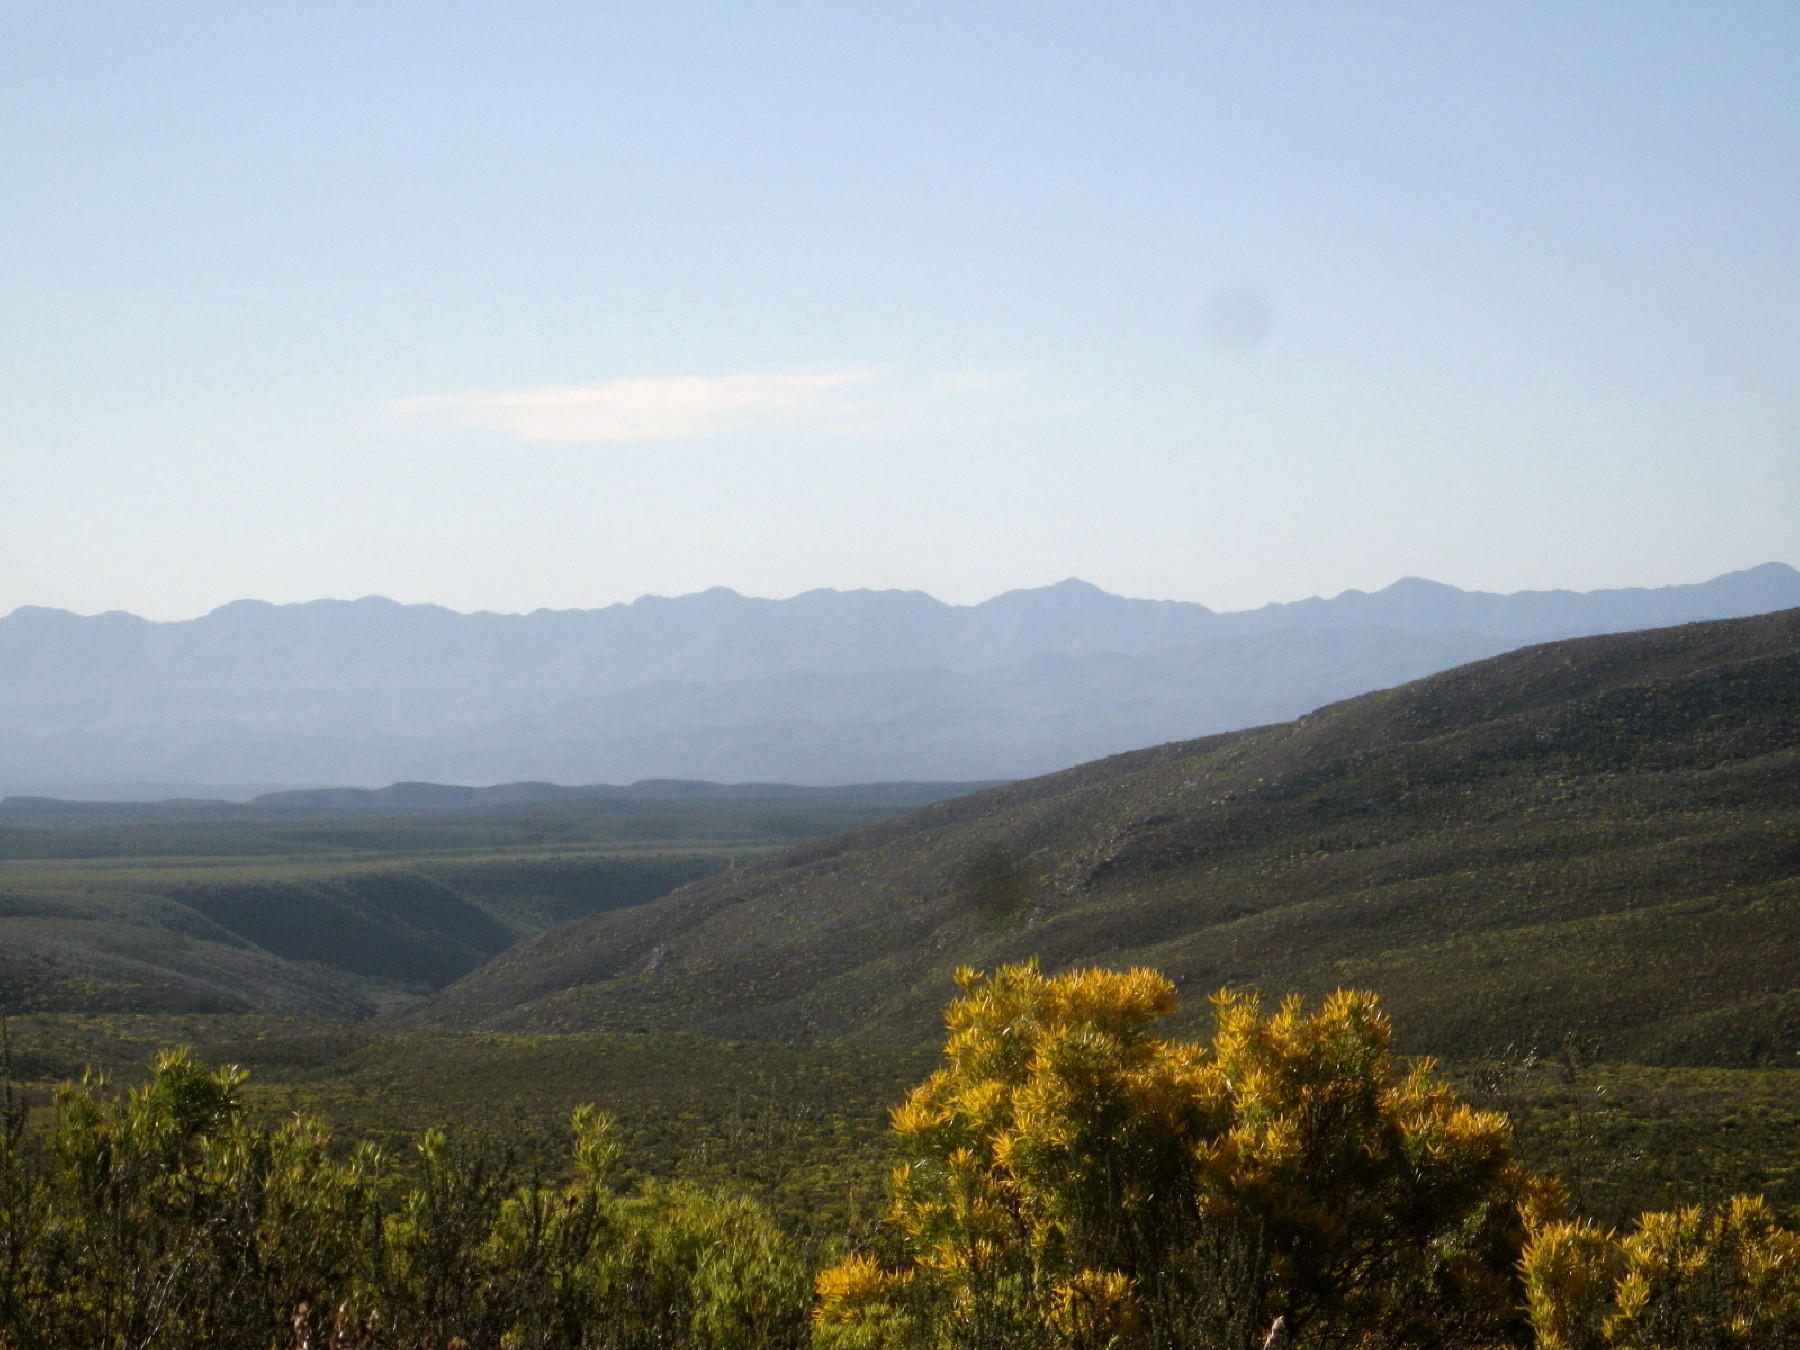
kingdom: Plantae
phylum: Tracheophyta
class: Magnoliopsida
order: Proteales
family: Proteaceae
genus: Leucadendron
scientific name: Leucadendron eucalyptifolium
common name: Gum-leaved conebush
